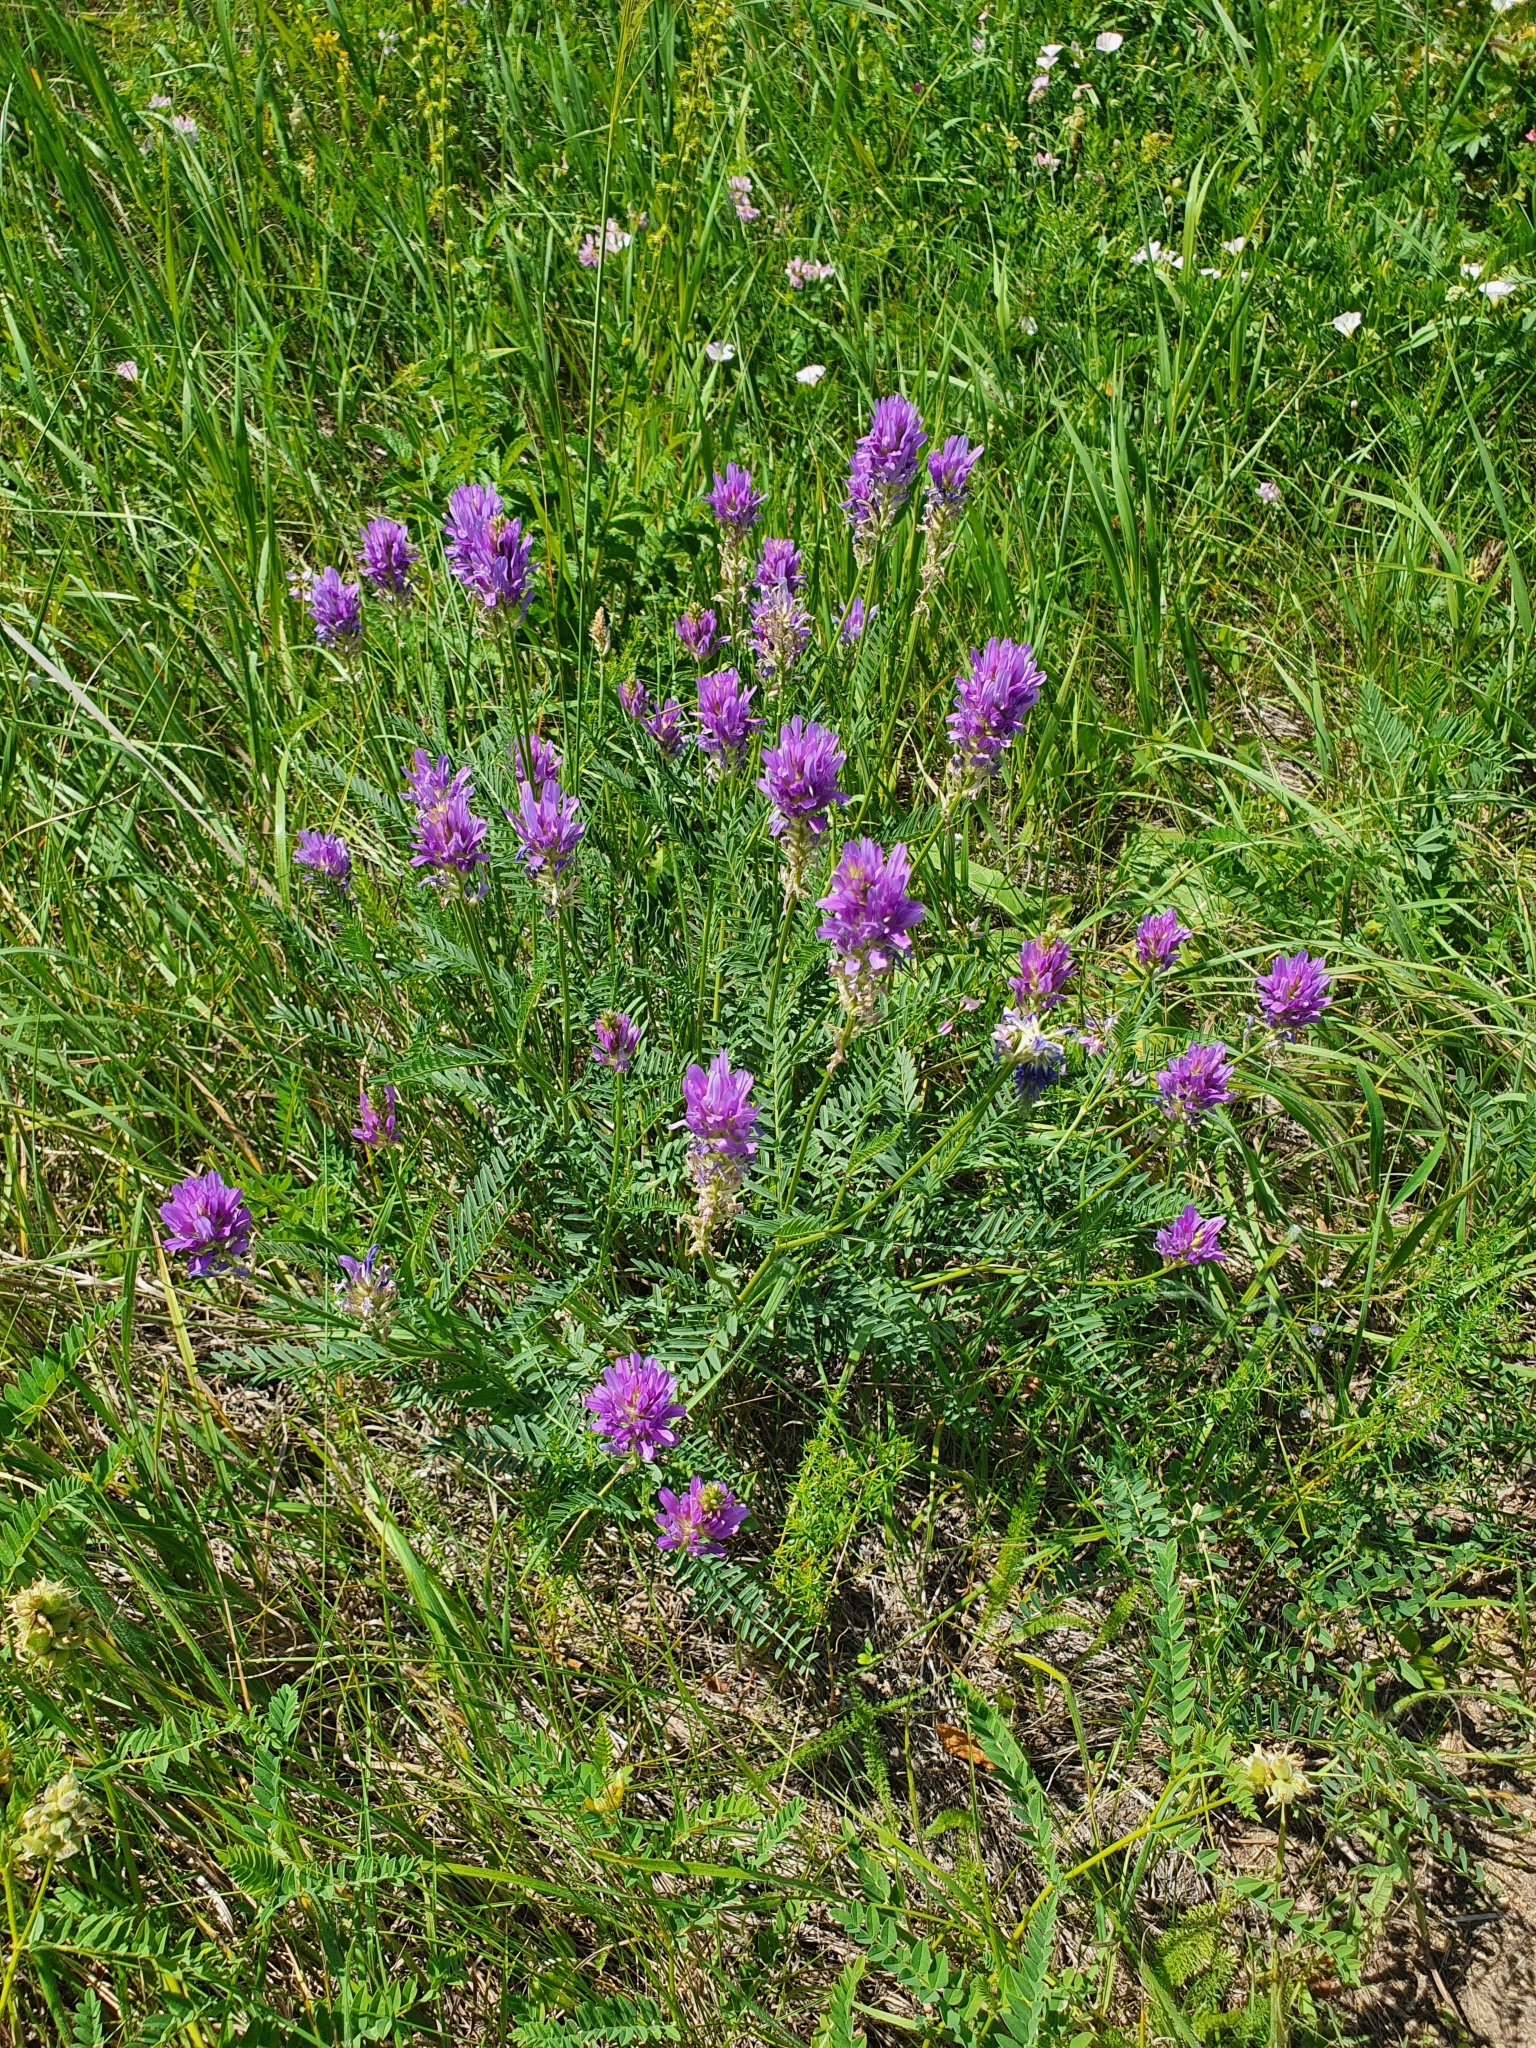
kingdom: Plantae
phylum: Tracheophyta
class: Magnoliopsida
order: Fabales
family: Fabaceae
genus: Astragalus
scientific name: Astragalus onobrychis
